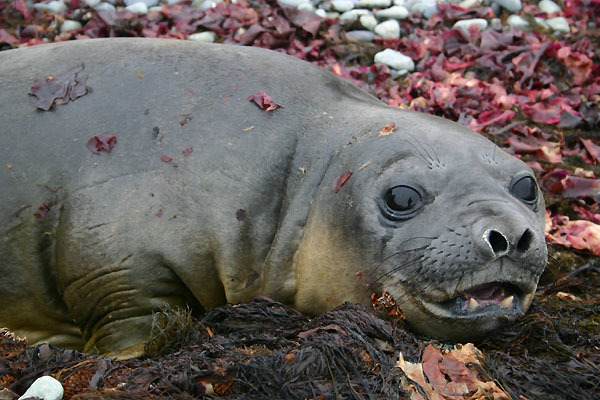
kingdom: Animalia
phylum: Chordata
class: Mammalia
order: Carnivora
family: Phocidae
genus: Mirounga
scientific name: Mirounga leonina
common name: Southern elephant seal
